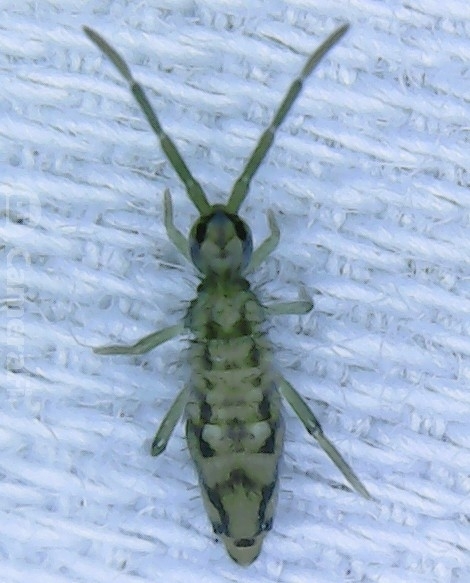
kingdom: Animalia
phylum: Arthropoda
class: Collembola
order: Entomobryomorpha
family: Entomobryidae
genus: Entomobrya
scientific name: Entomobrya katzi
